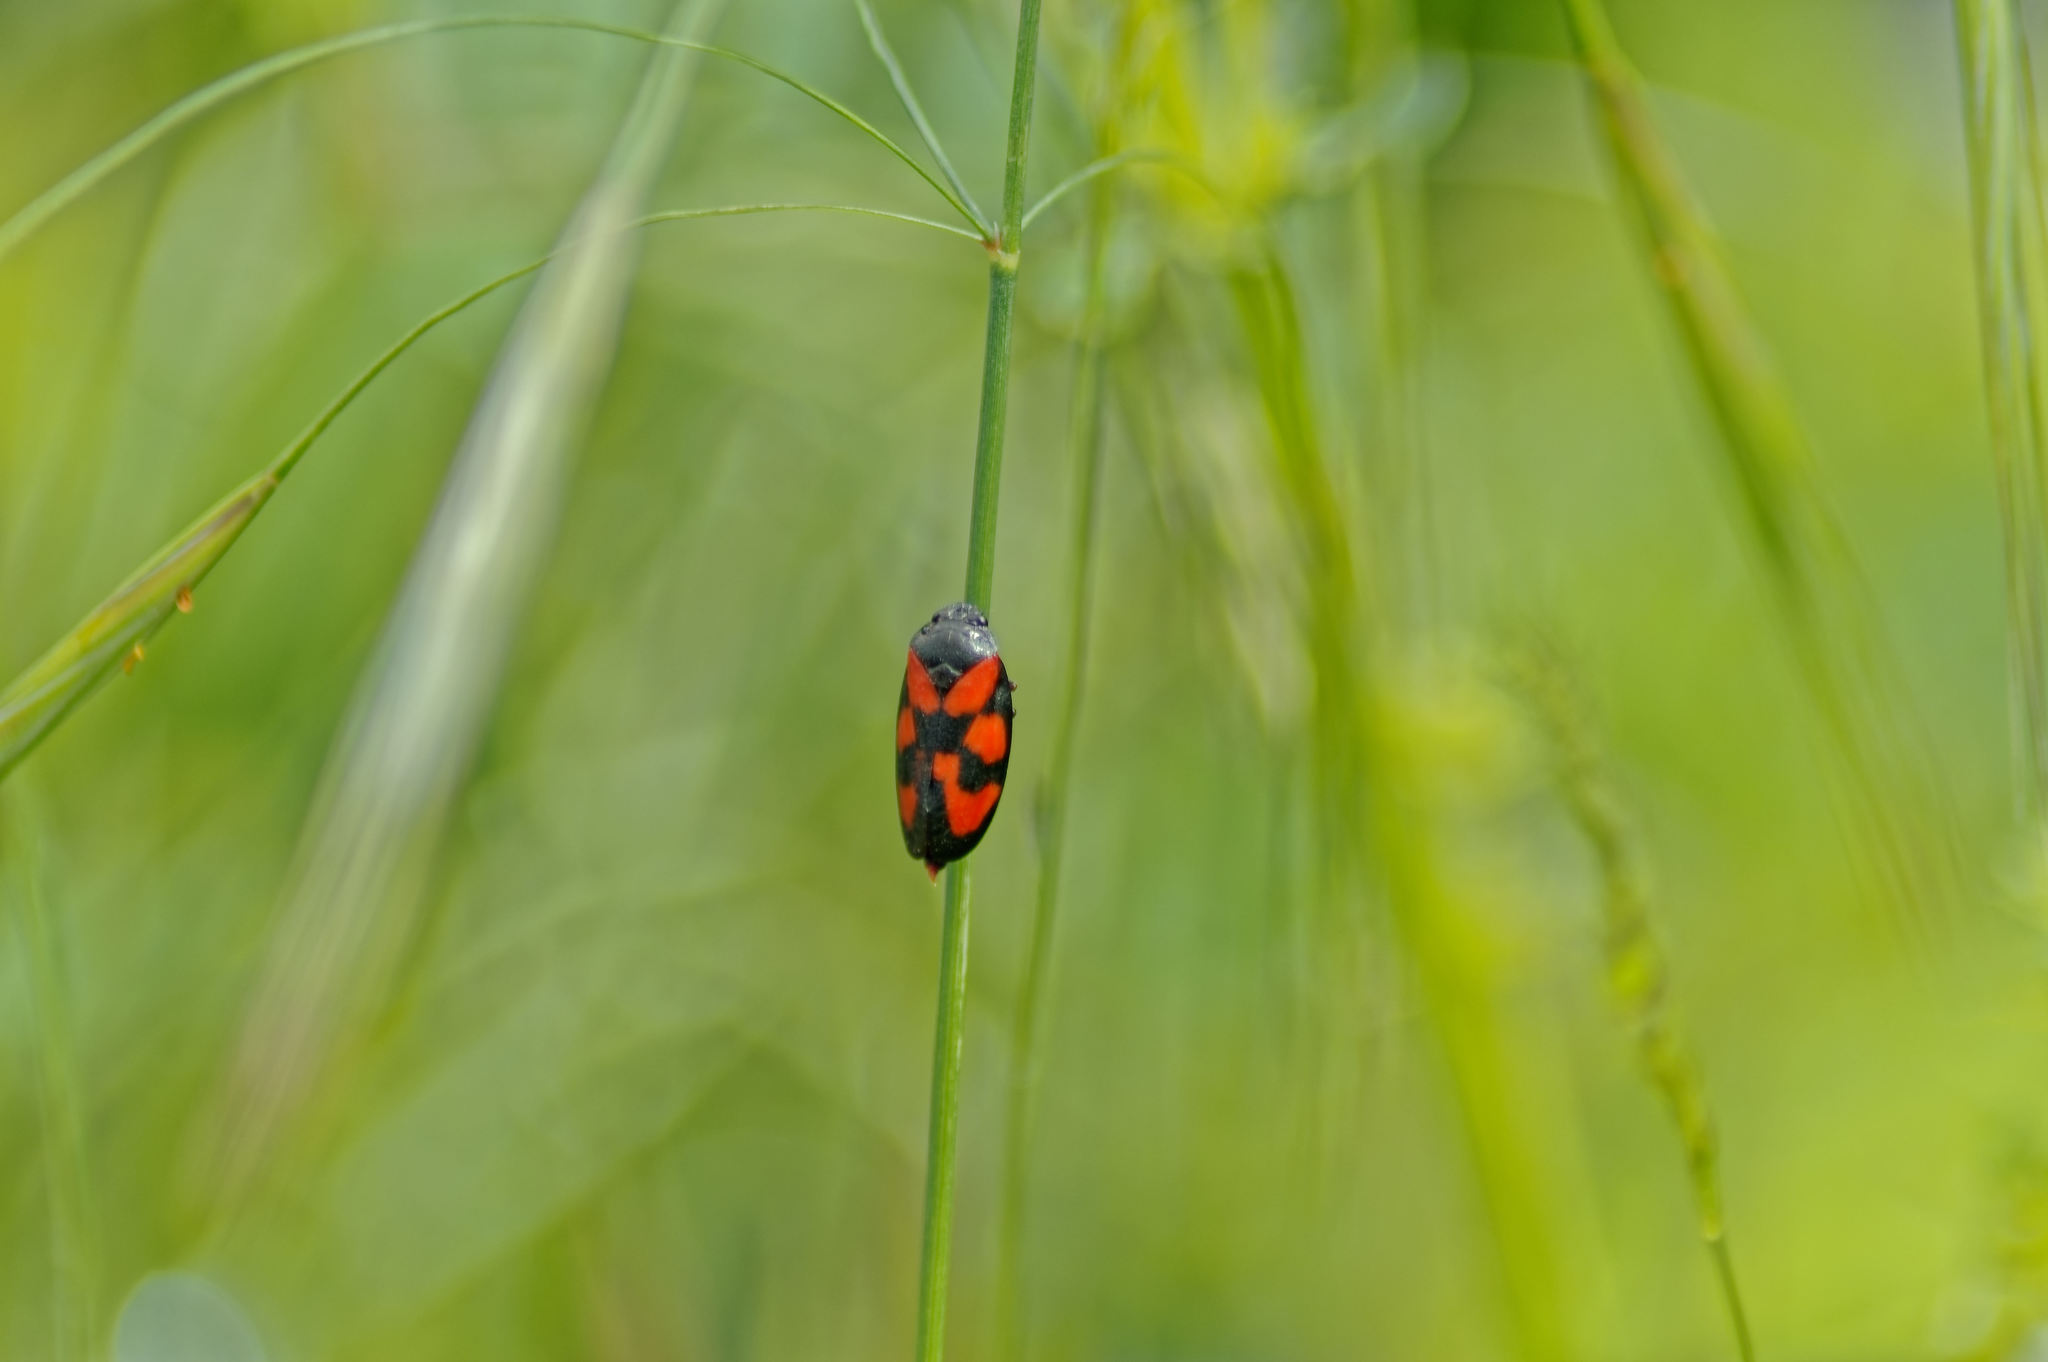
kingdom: Animalia
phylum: Arthropoda
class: Insecta
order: Hemiptera
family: Cercopidae
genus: Cercopis
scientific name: Cercopis vulnerata
